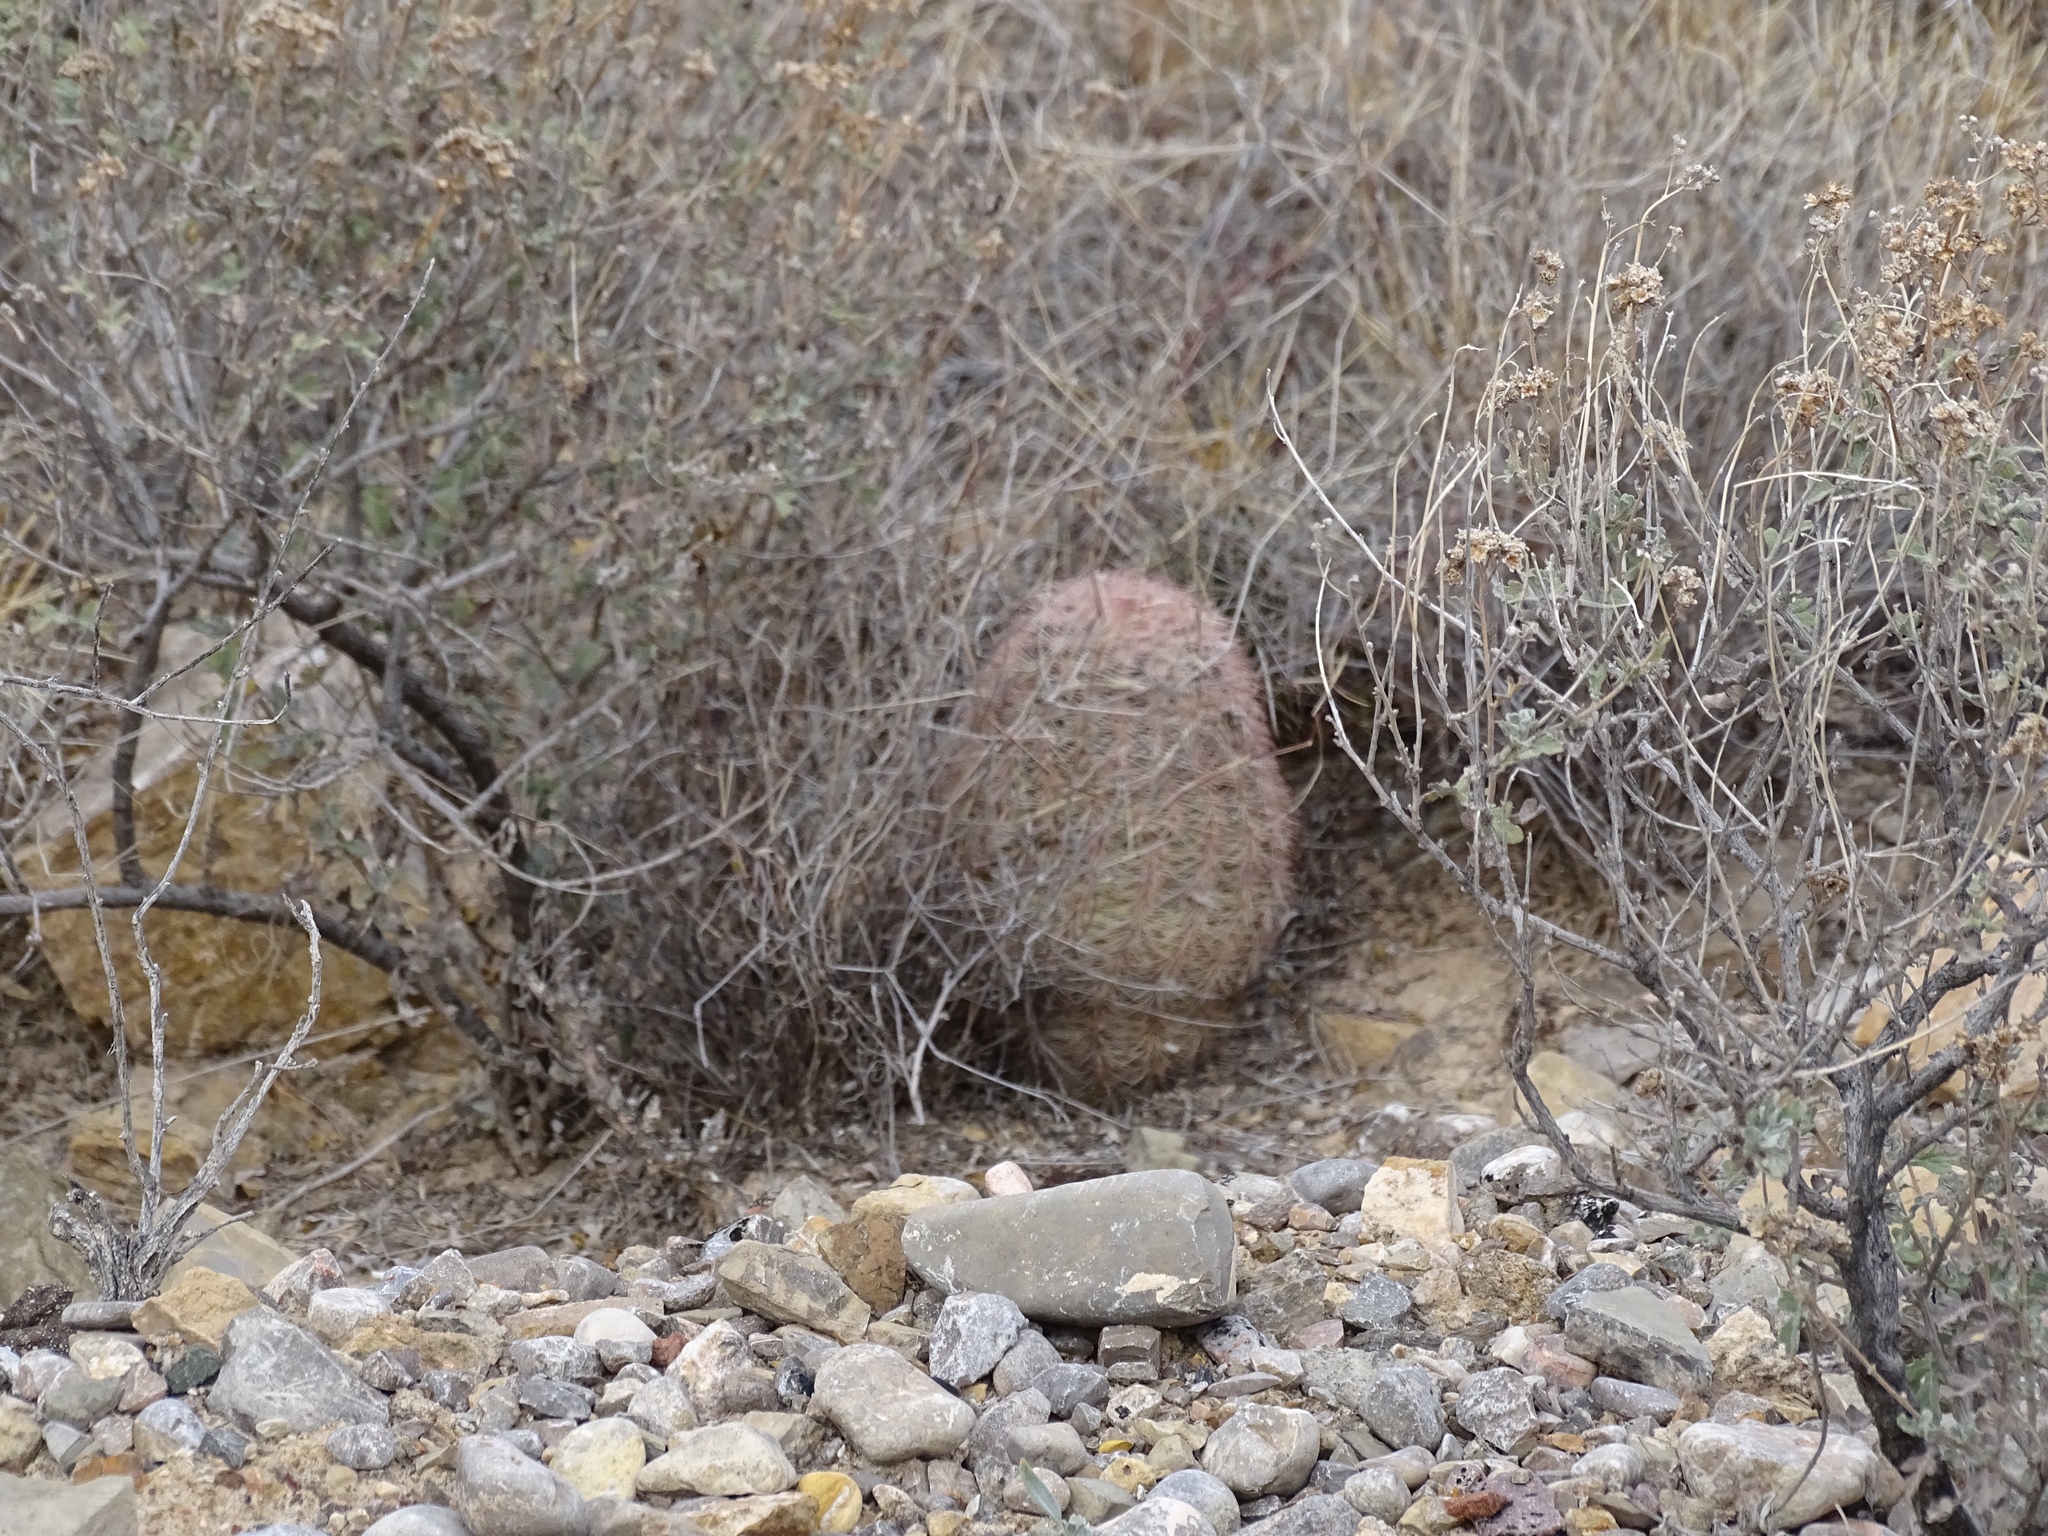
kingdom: Plantae
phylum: Tracheophyta
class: Magnoliopsida
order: Caryophyllales
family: Cactaceae
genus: Echinocereus
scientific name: Echinocereus dasyacanthus
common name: Spiny hedgehog cactus
